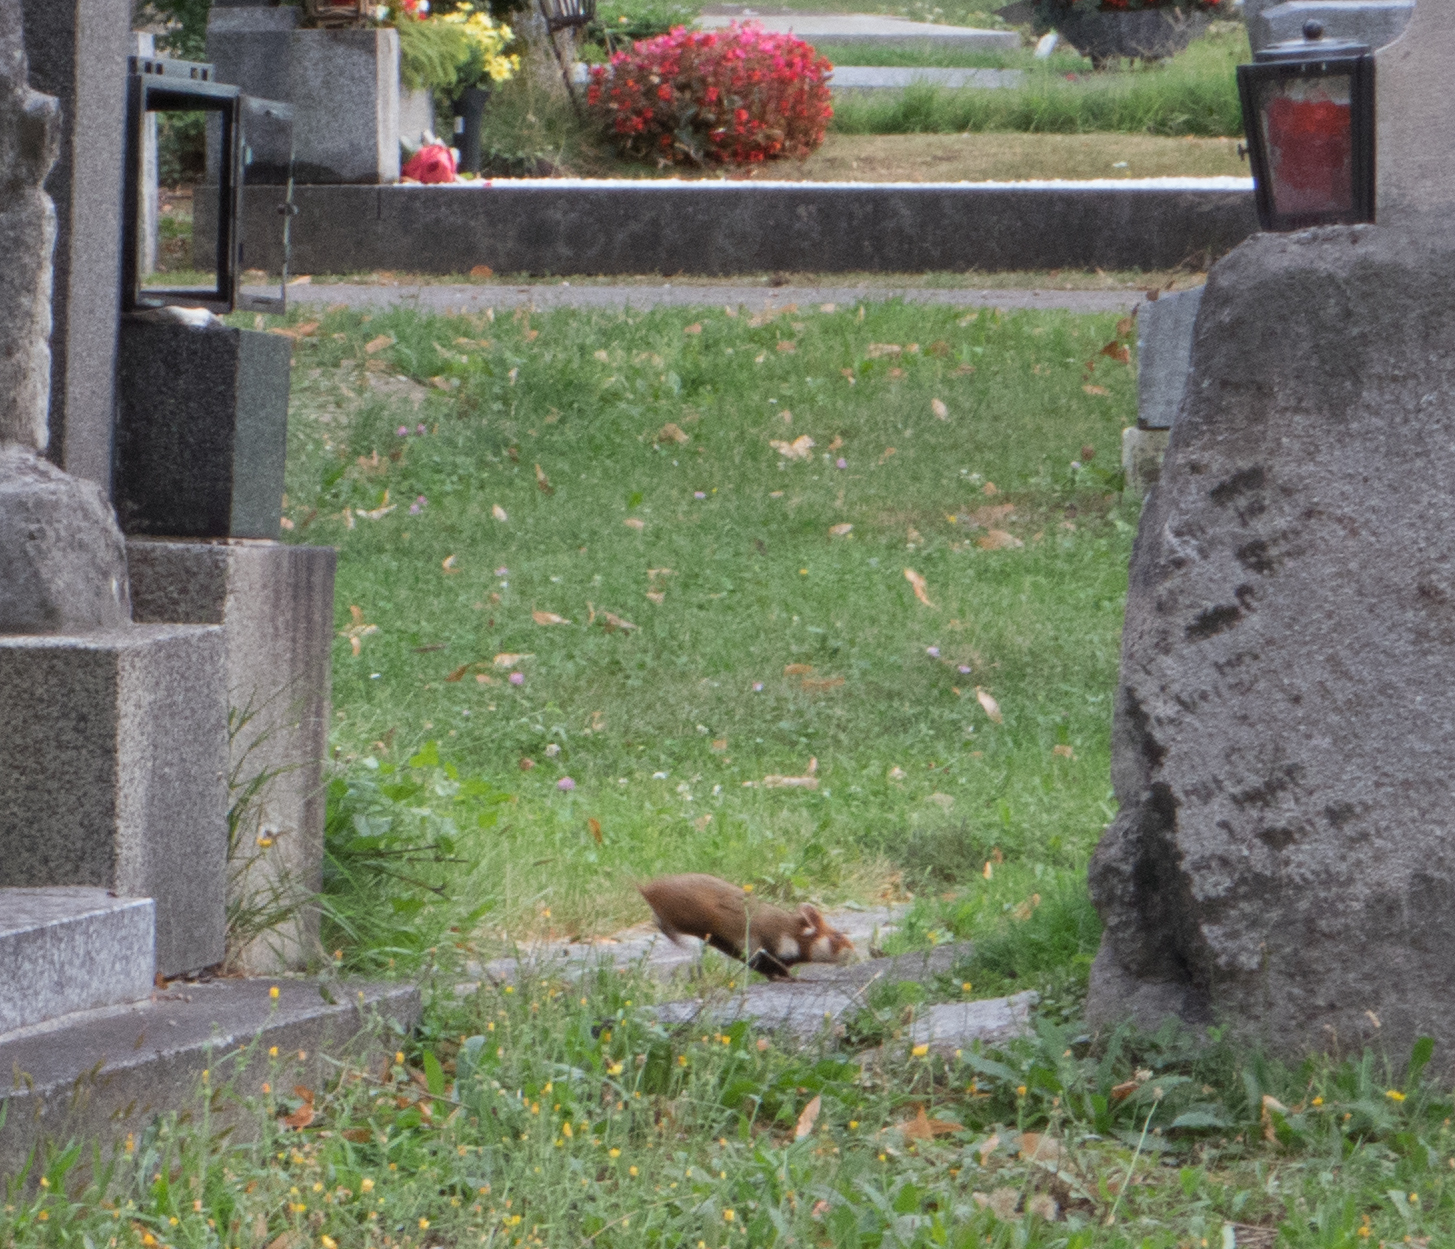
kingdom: Animalia
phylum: Chordata
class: Mammalia
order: Rodentia
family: Cricetidae
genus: Cricetus
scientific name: Cricetus cricetus
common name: Common hamster
